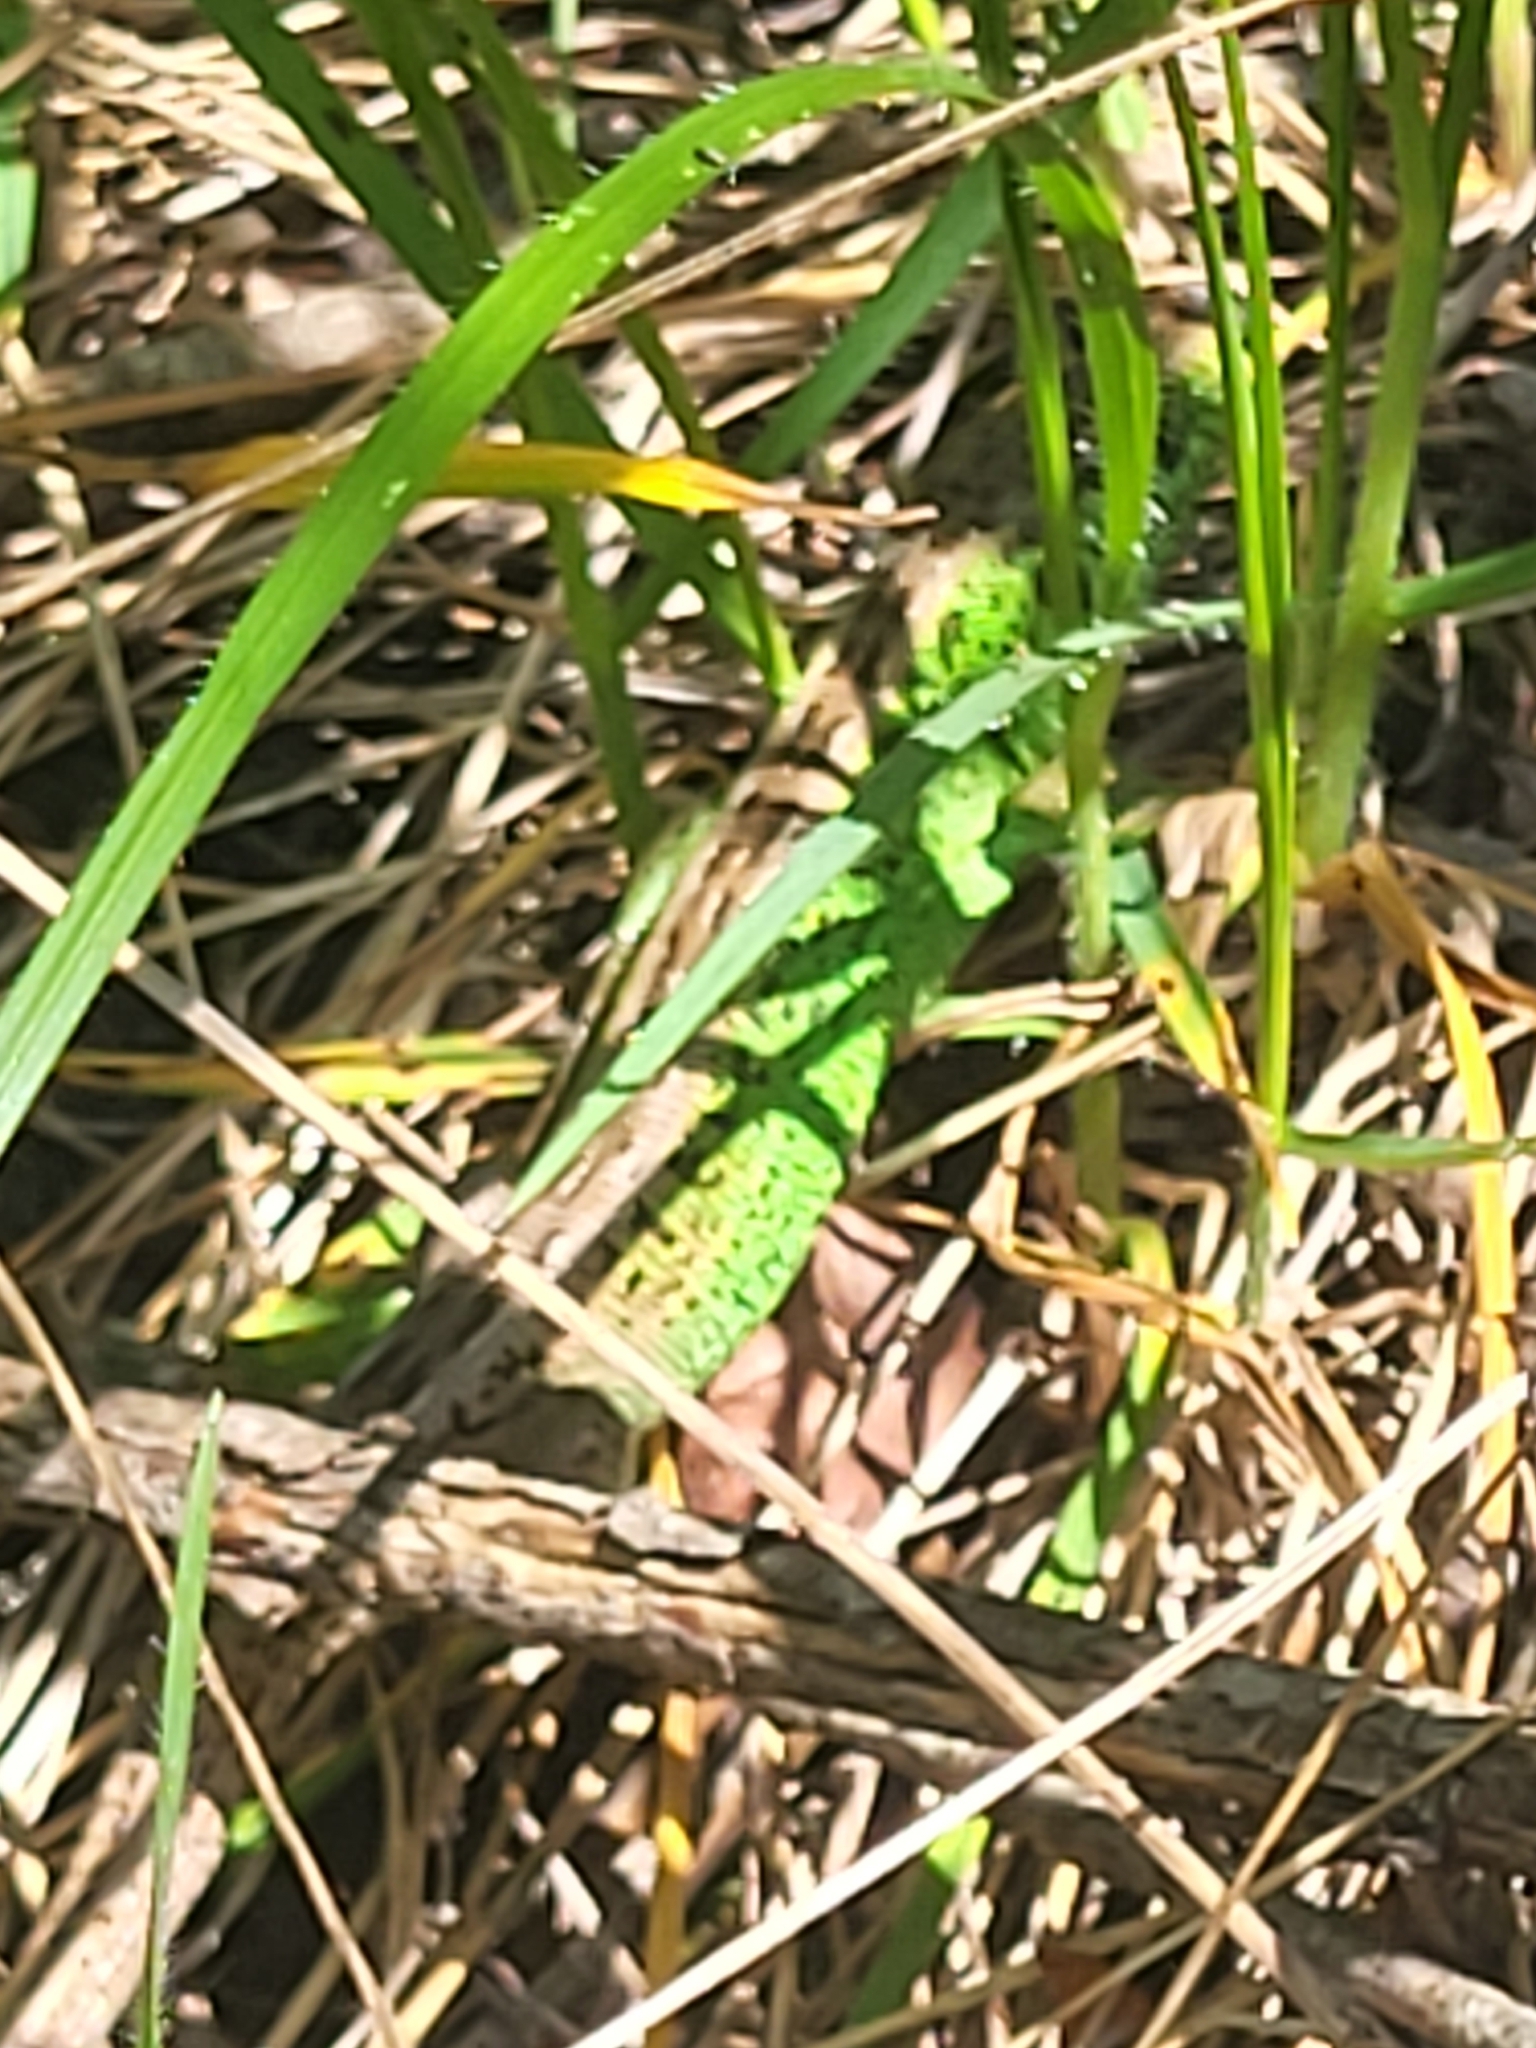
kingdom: Animalia
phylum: Chordata
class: Squamata
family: Lacertidae
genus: Lacerta
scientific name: Lacerta agilis
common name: Sand lizard
